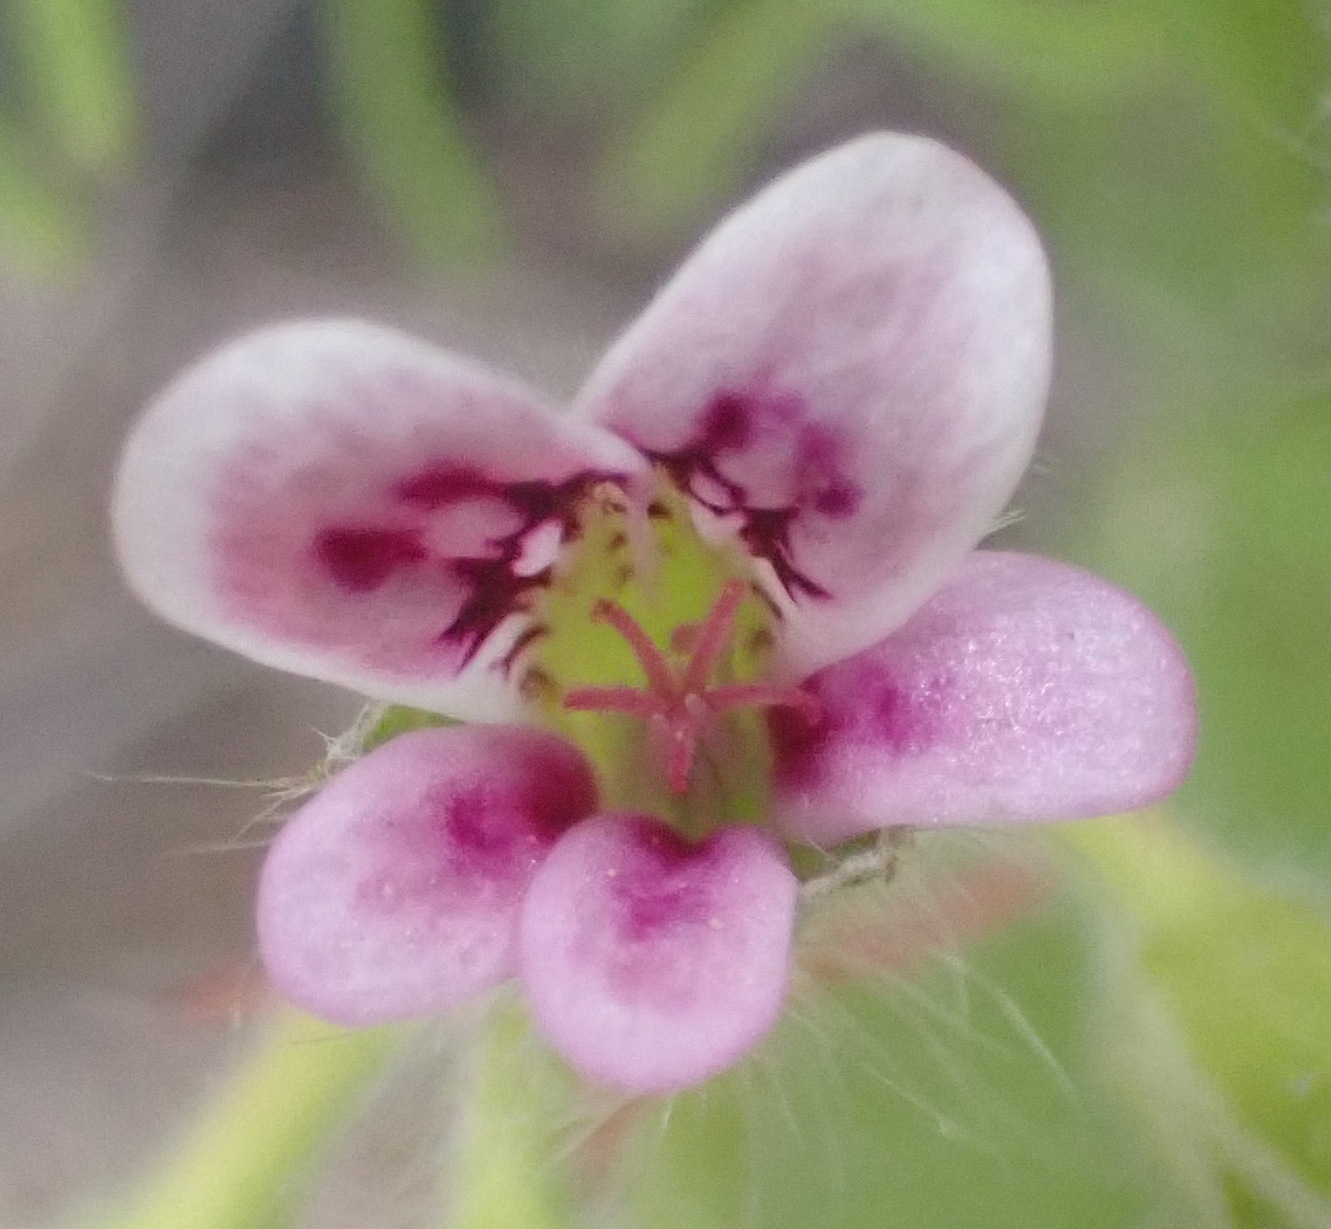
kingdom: Plantae
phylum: Tracheophyta
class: Magnoliopsida
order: Geraniales
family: Geraniaceae
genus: Pelargonium
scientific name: Pelargonium althaeoides
